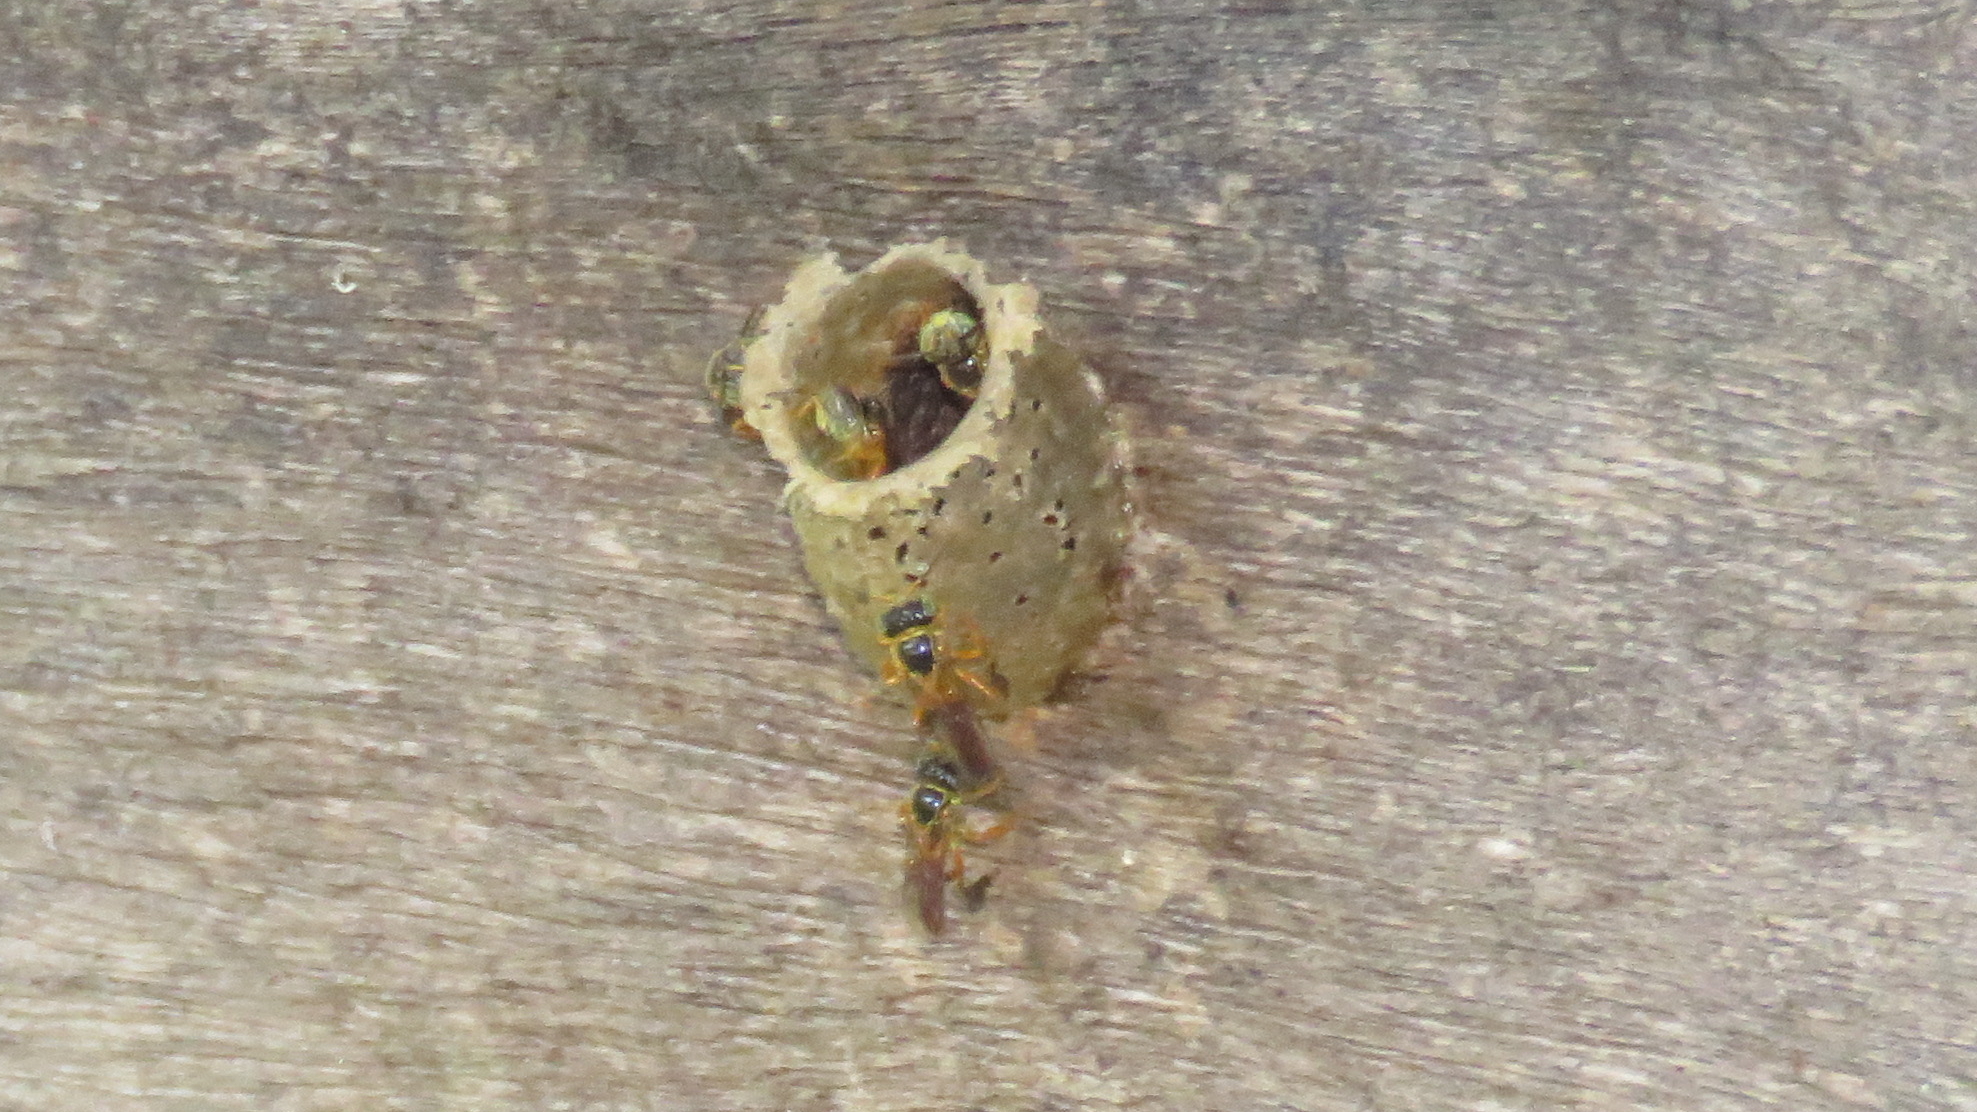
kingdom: Animalia
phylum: Arthropoda
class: Insecta
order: Hymenoptera
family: Apidae
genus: Tetragonisca
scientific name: Tetragonisca angustula
